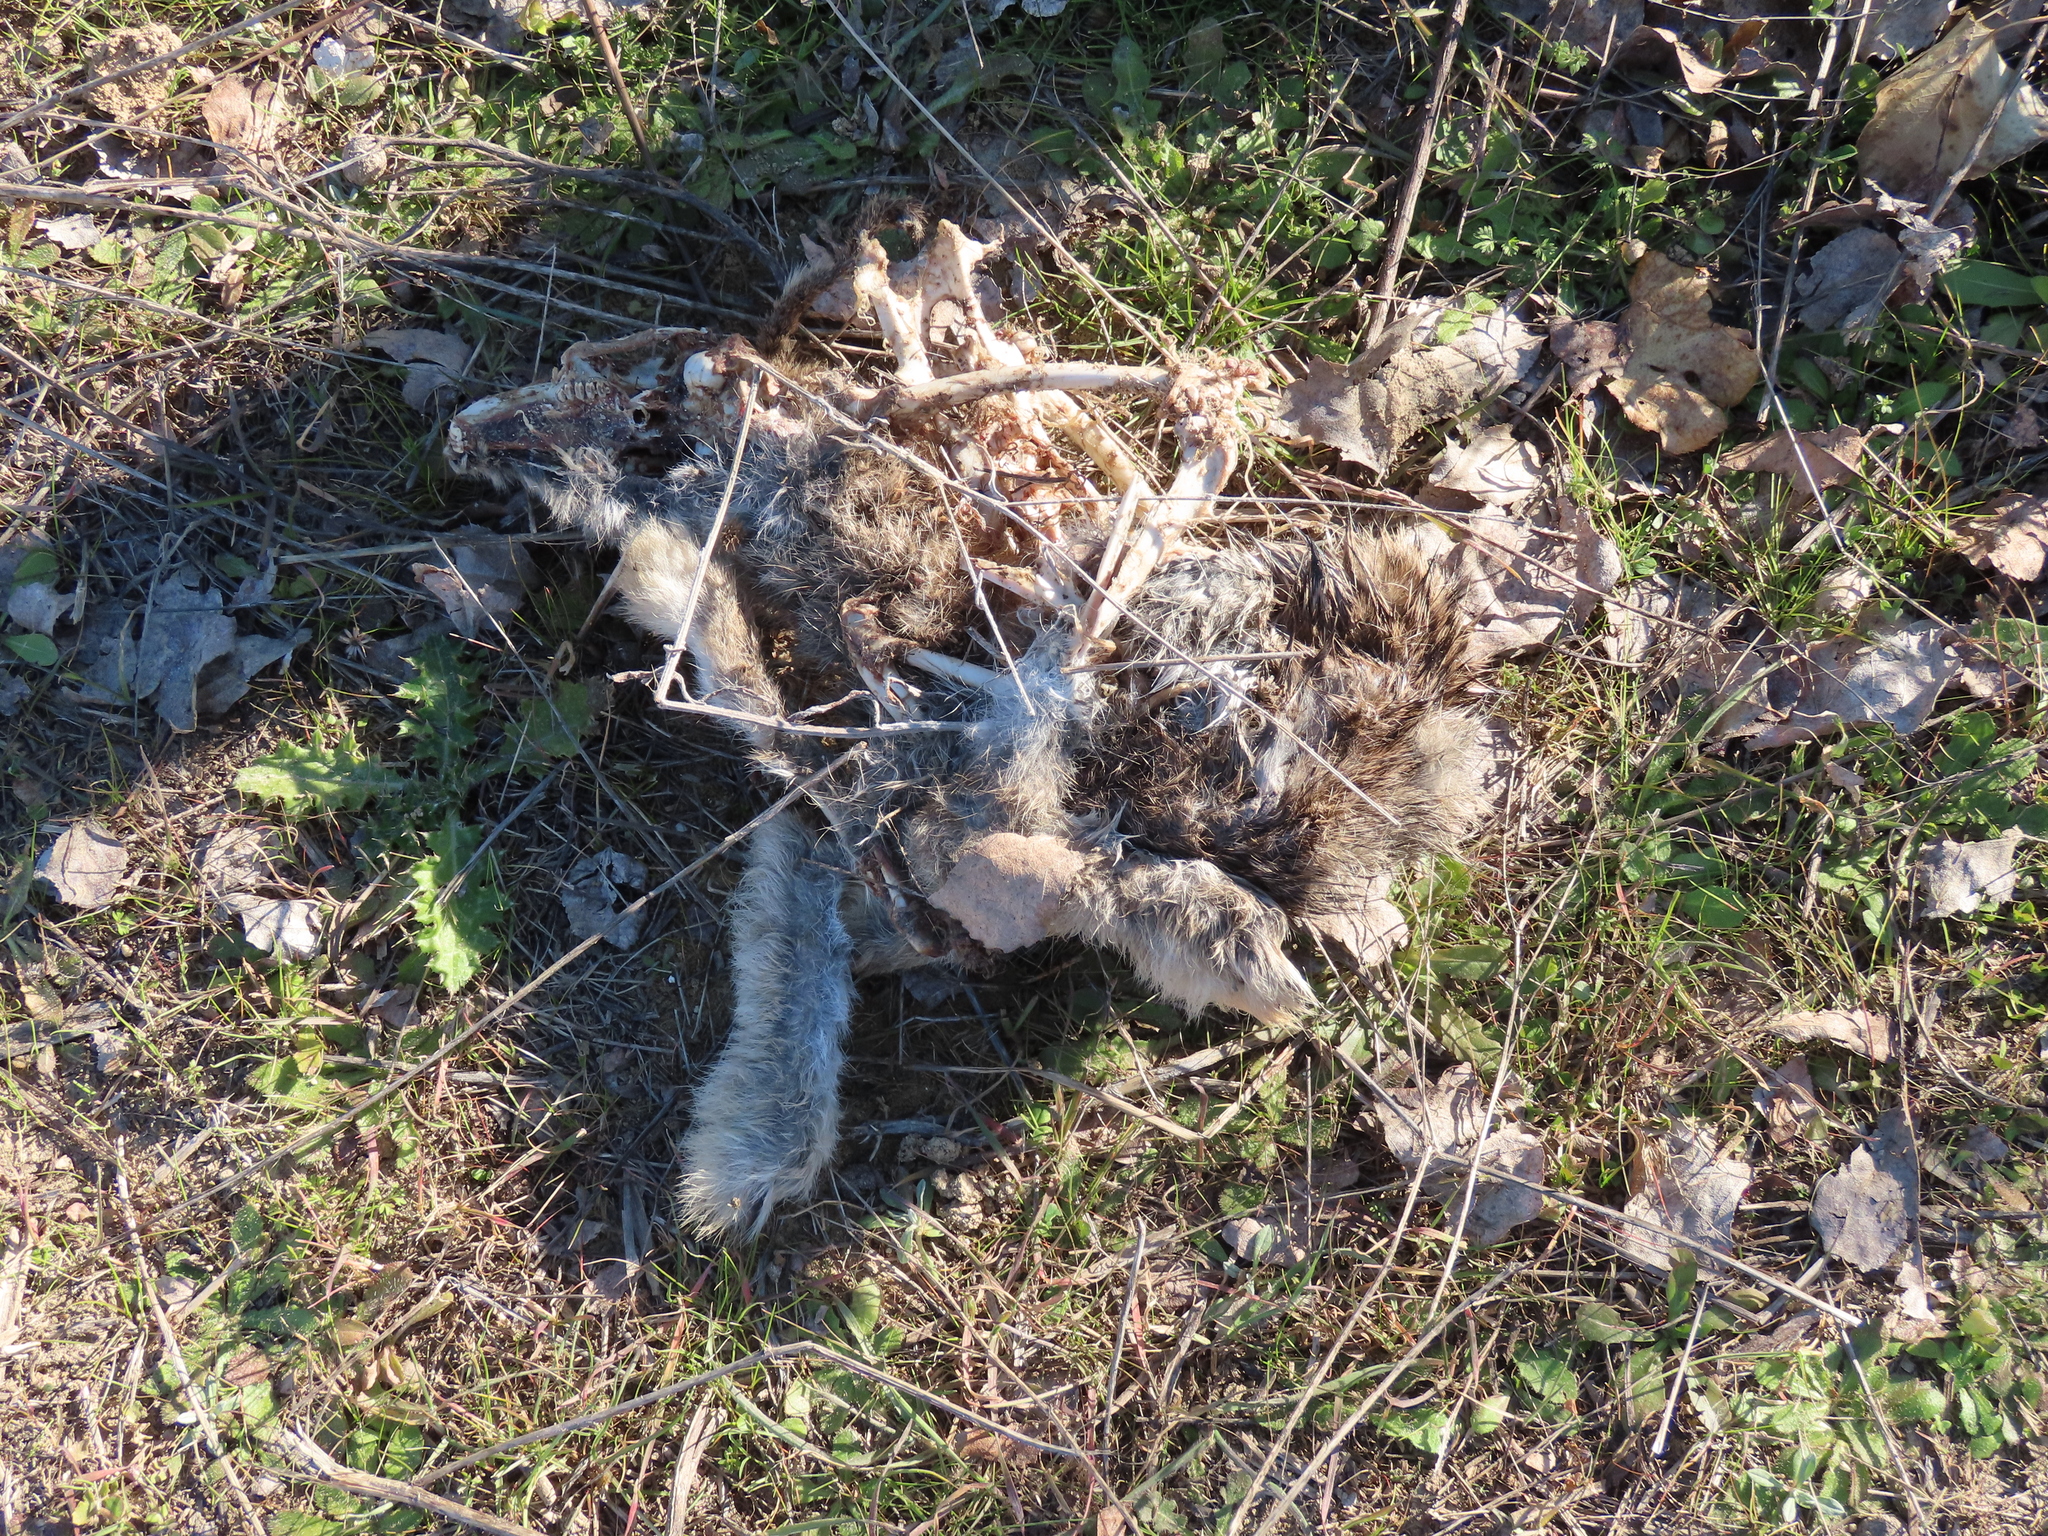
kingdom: Animalia
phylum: Chordata
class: Mammalia
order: Lagomorpha
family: Leporidae
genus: Oryctolagus
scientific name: Oryctolagus cuniculus
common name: European rabbit
